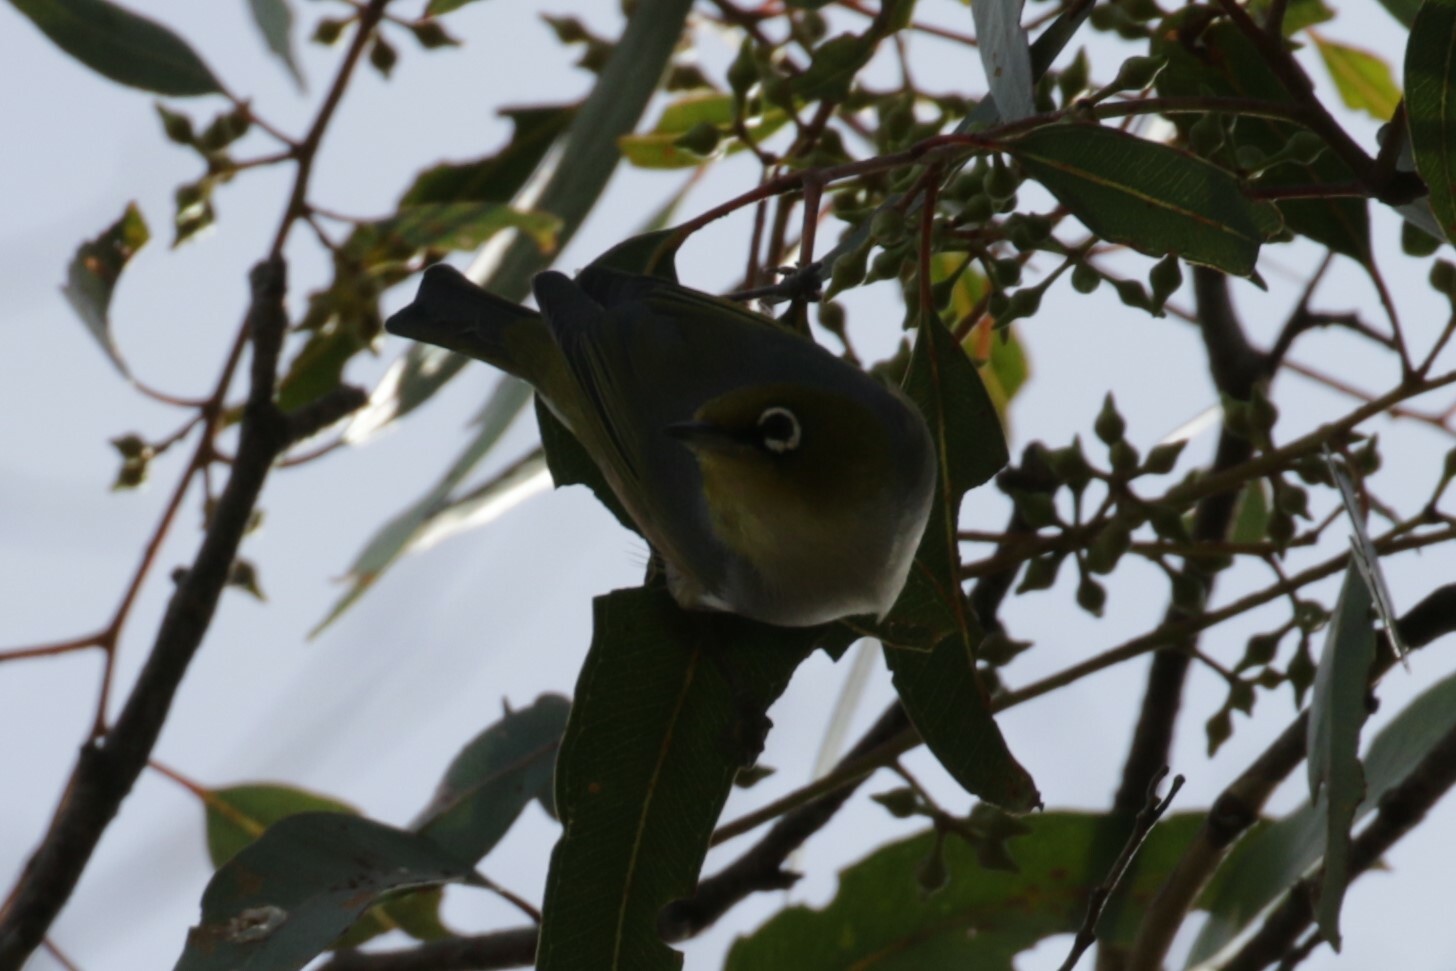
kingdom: Animalia
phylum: Chordata
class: Aves
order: Passeriformes
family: Zosteropidae
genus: Zosterops
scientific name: Zosterops lateralis
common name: Silvereye
